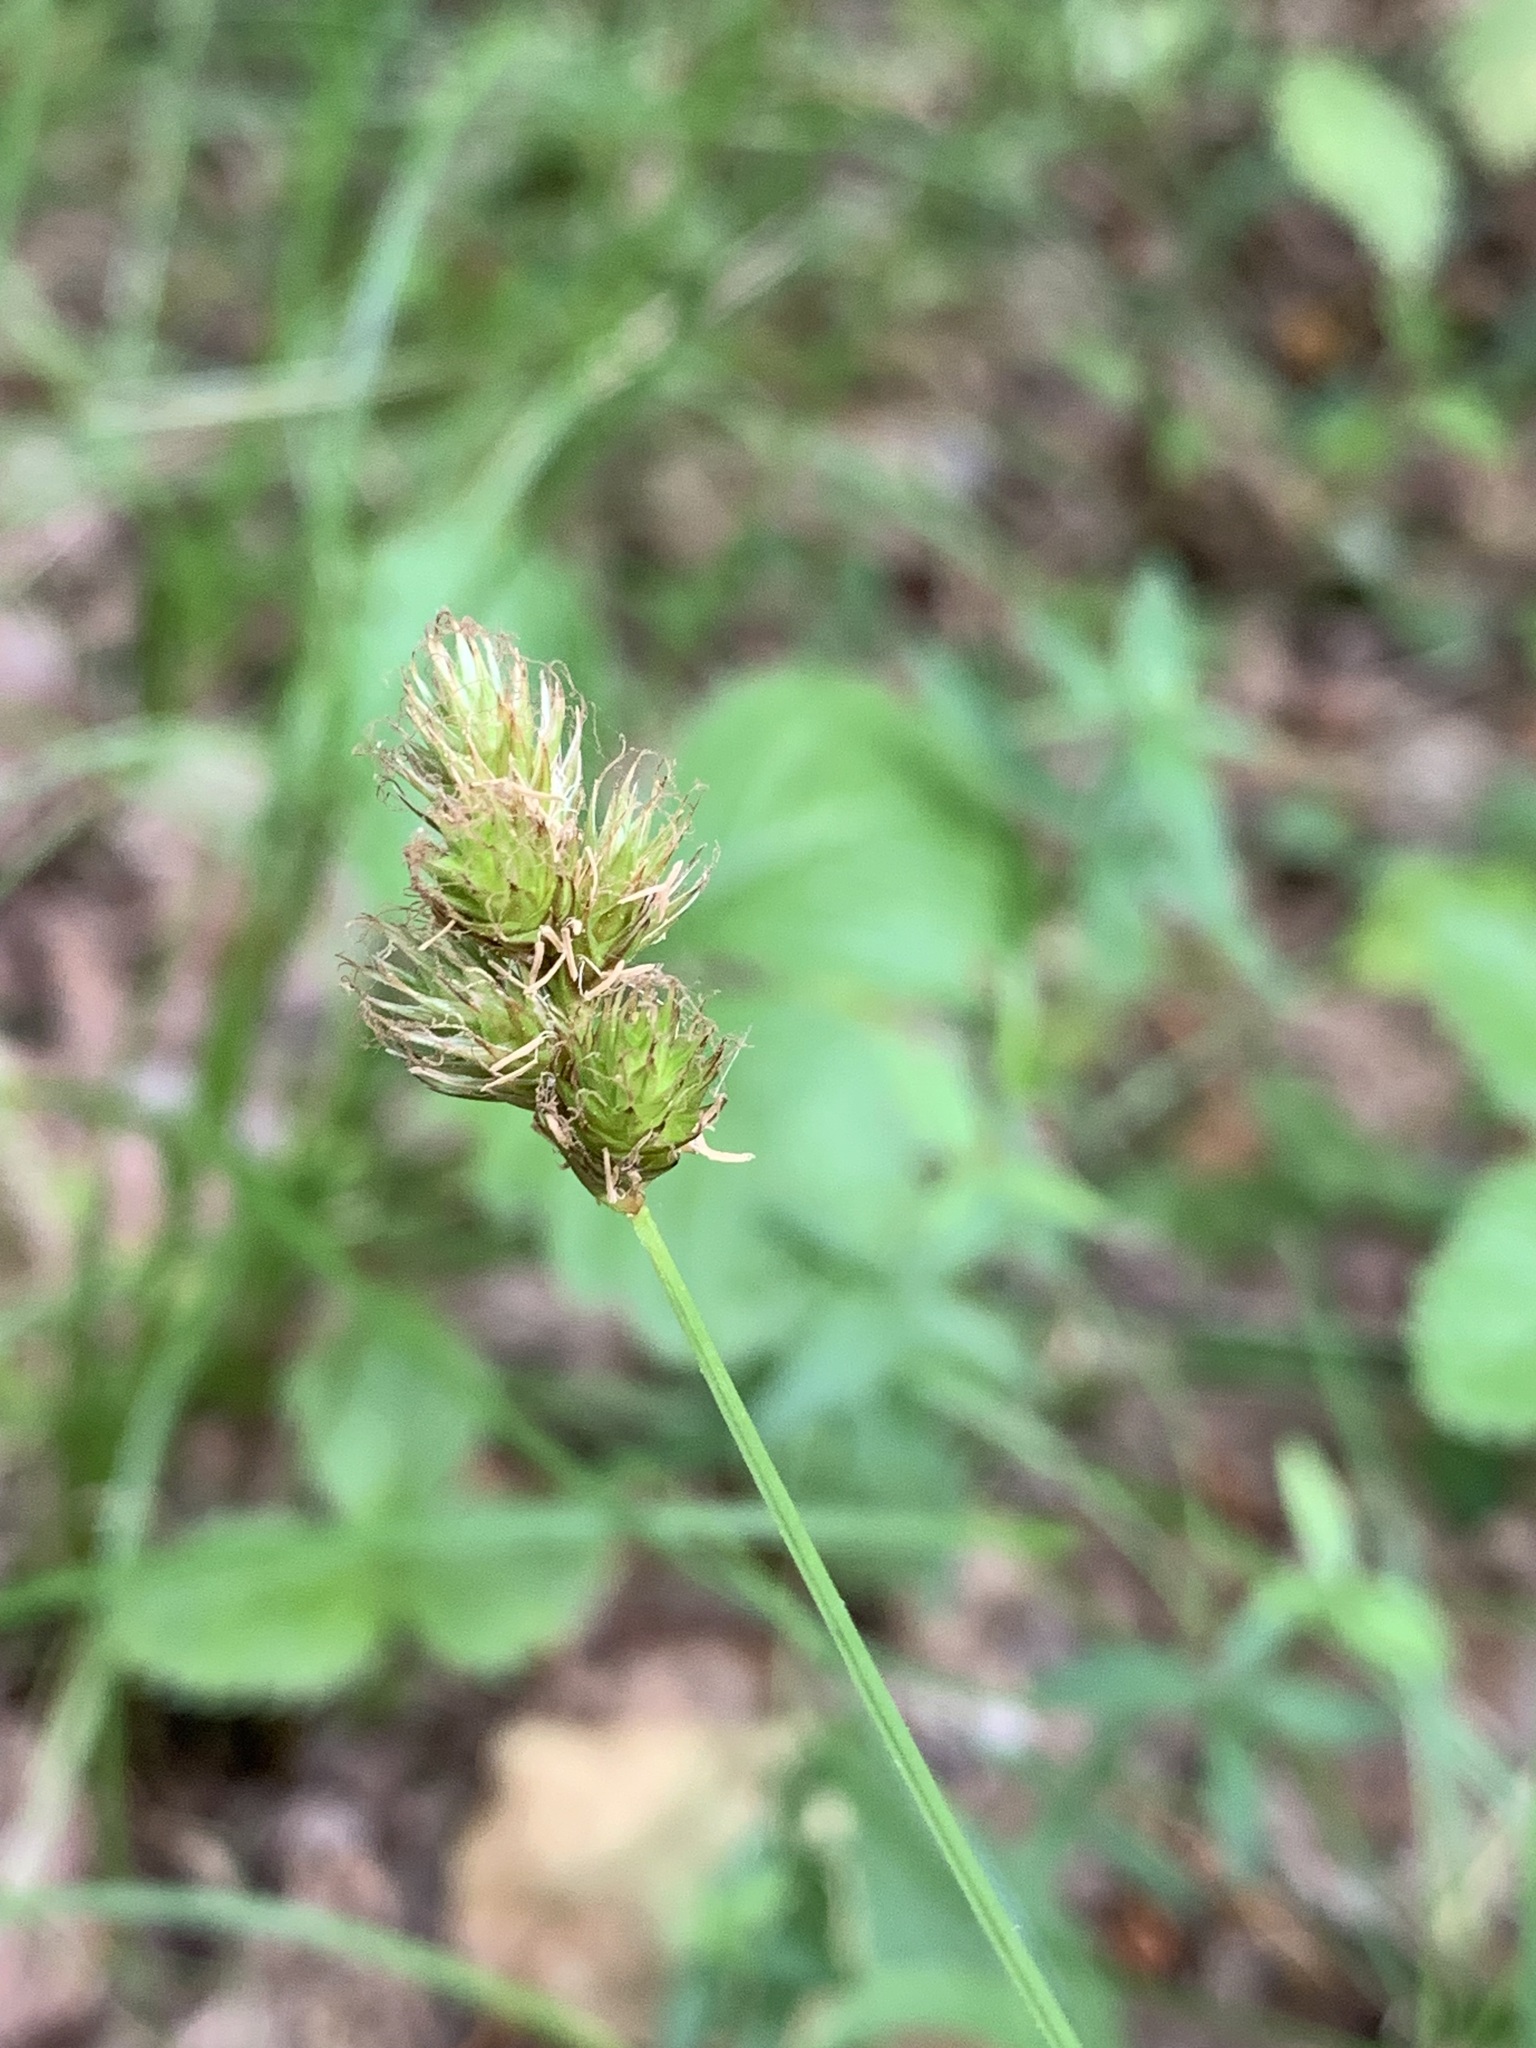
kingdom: Plantae
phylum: Tracheophyta
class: Liliopsida
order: Poales
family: Cyperaceae
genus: Carex
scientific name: Carex leporina
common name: Oval sedge
